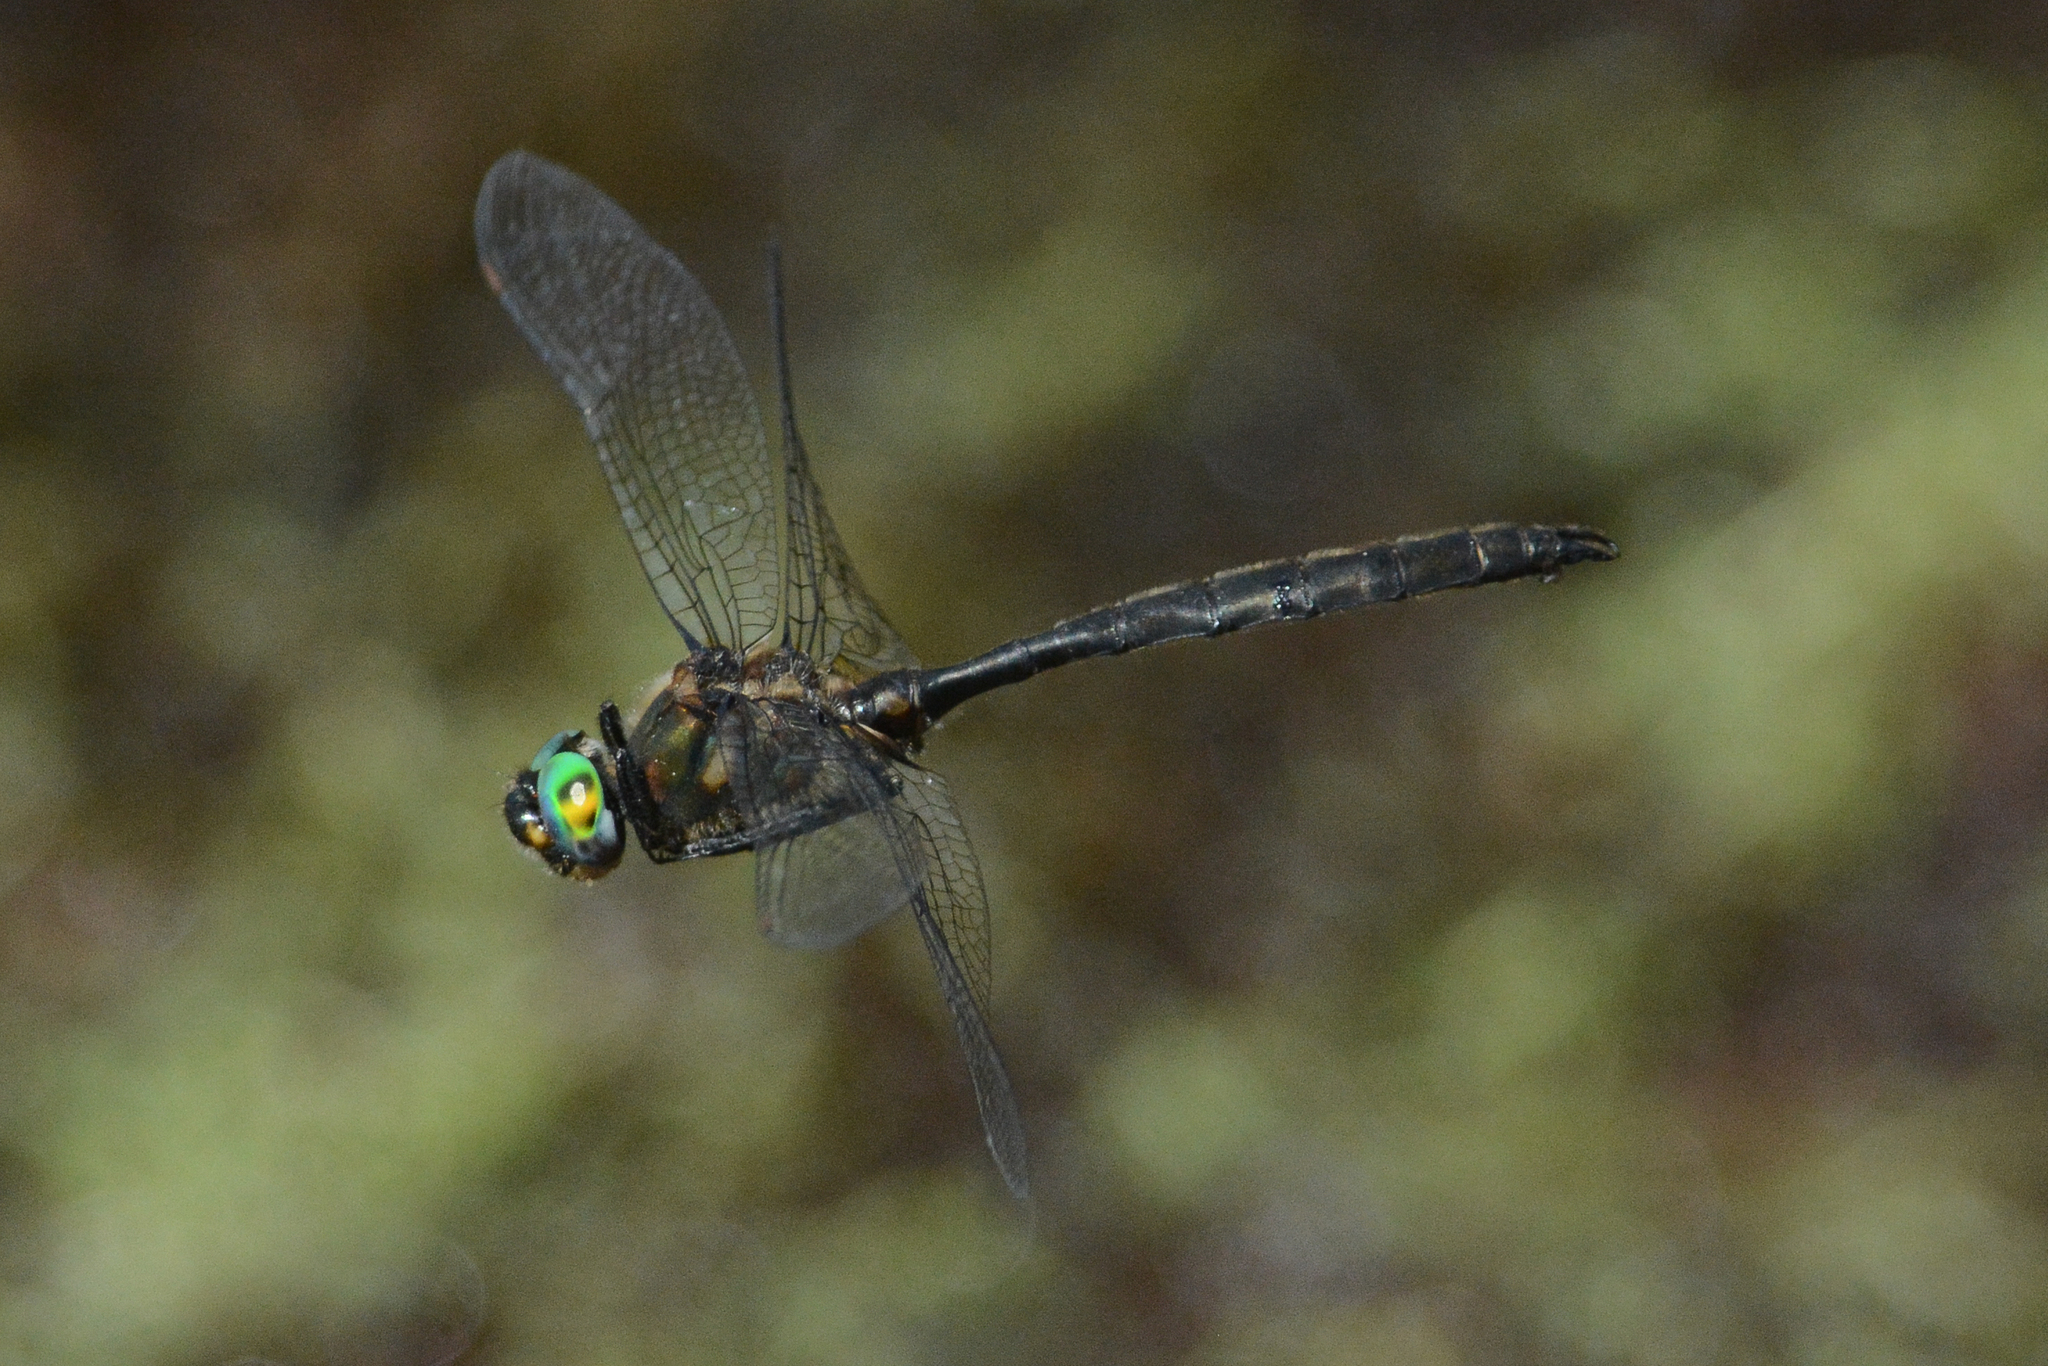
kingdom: Animalia
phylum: Arthropoda
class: Insecta
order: Odonata
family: Corduliidae
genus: Somatochlora
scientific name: Somatochlora semicircularis
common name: Mountain emerald
